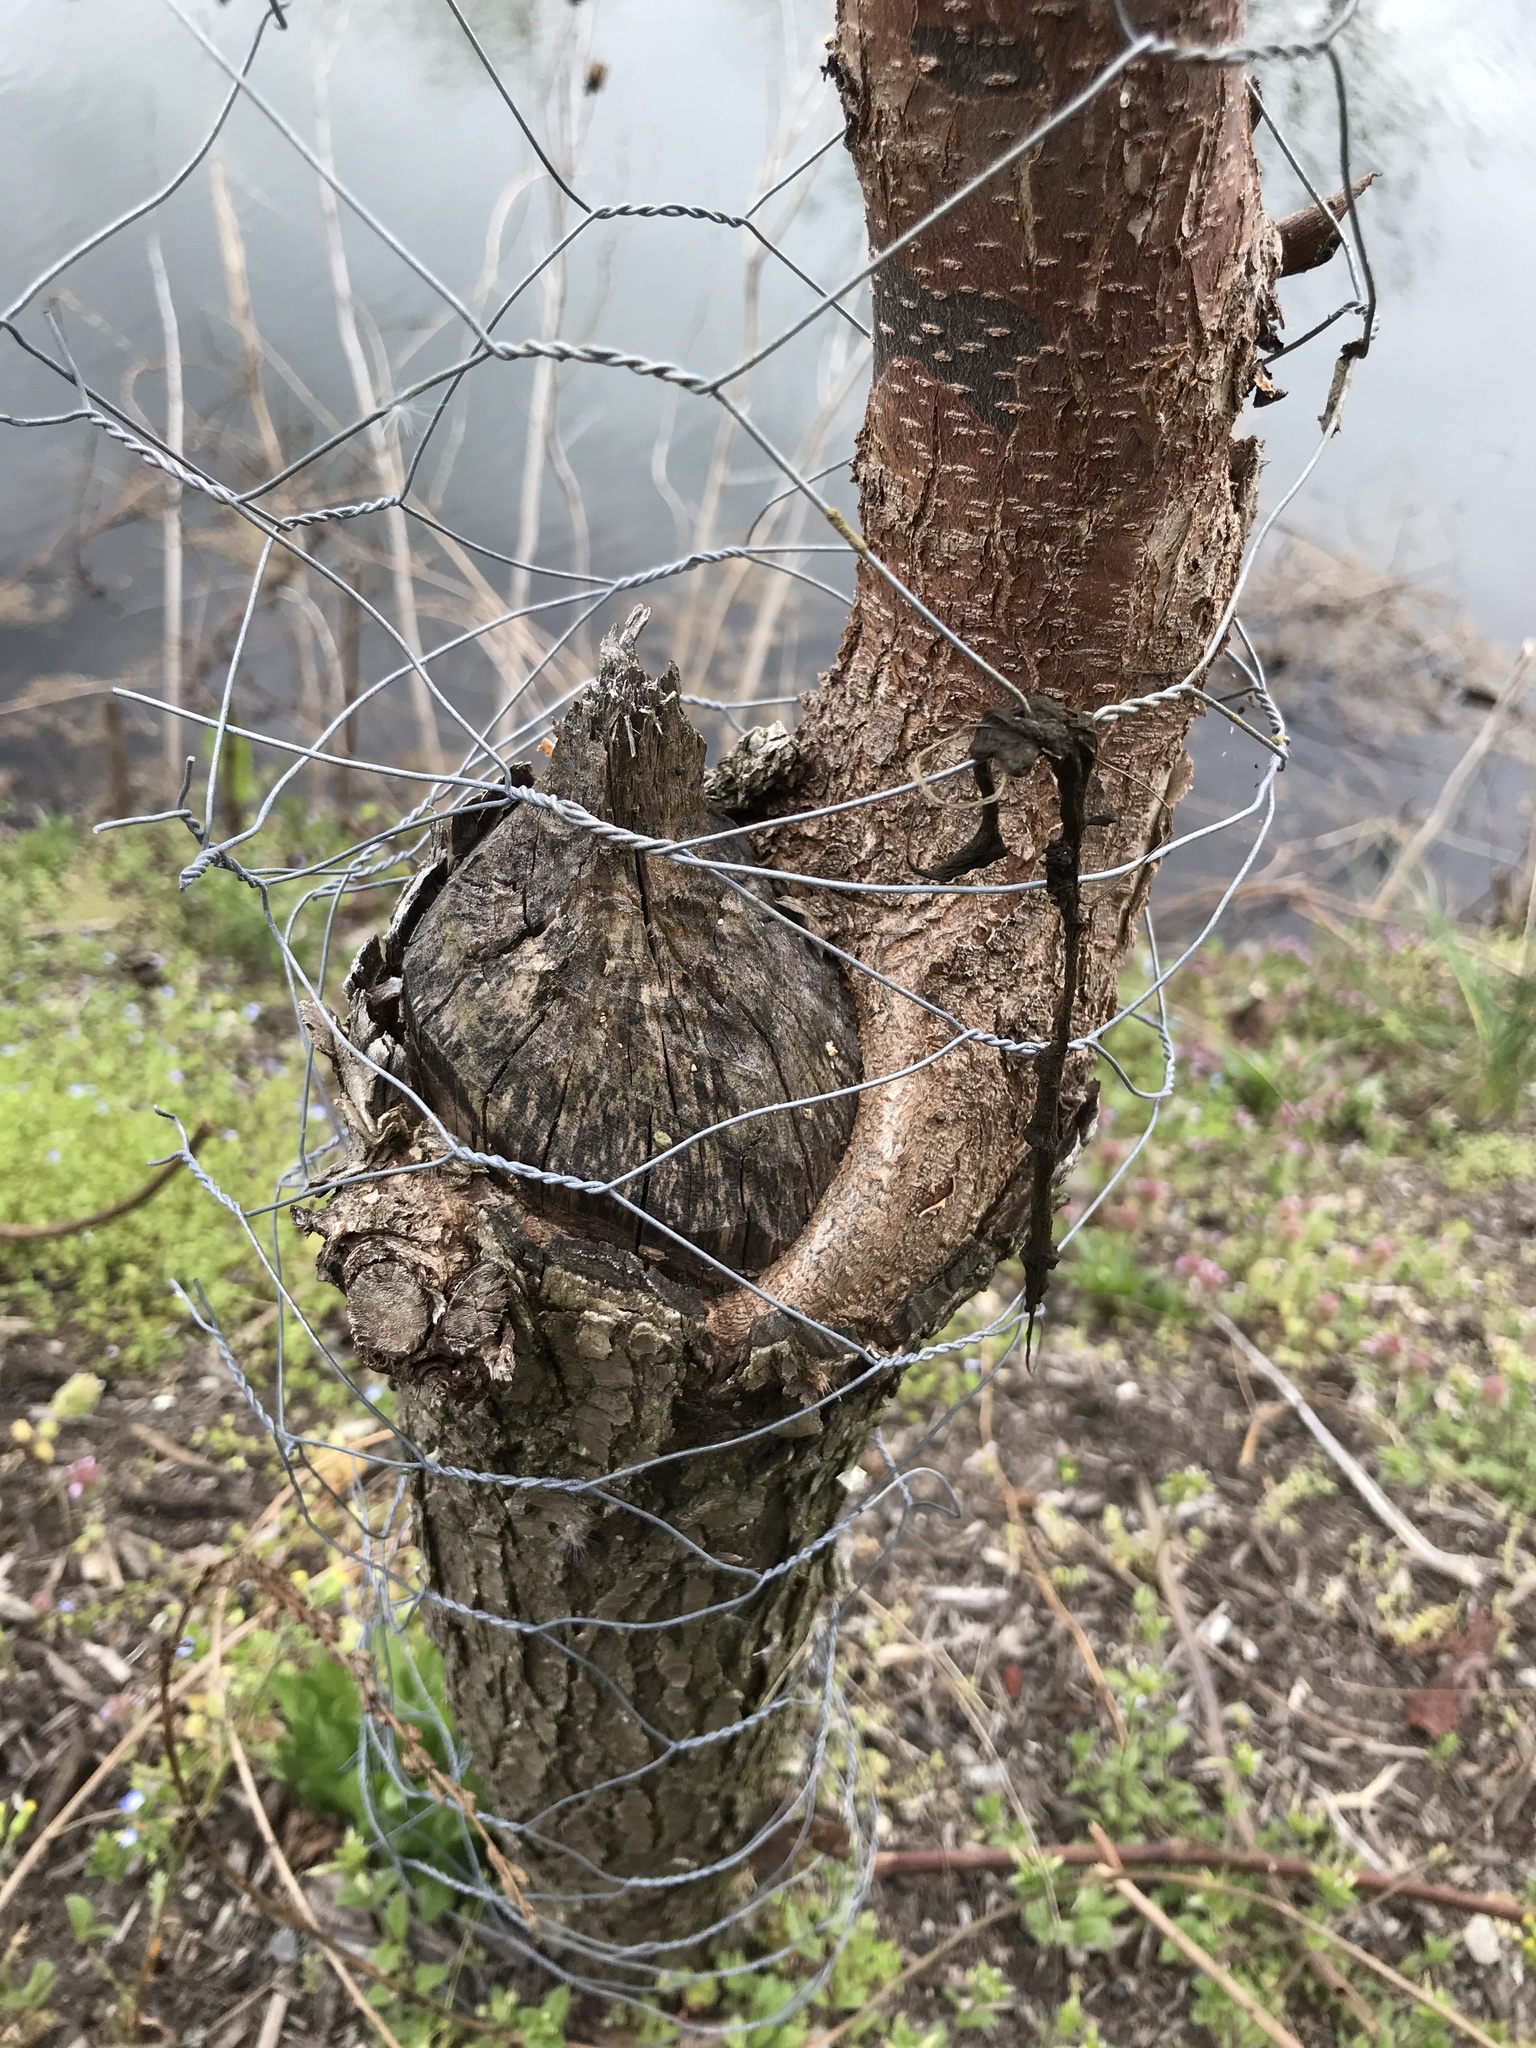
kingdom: Animalia
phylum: Chordata
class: Mammalia
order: Rodentia
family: Castoridae
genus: Castor
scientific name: Castor canadensis
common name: American beaver
